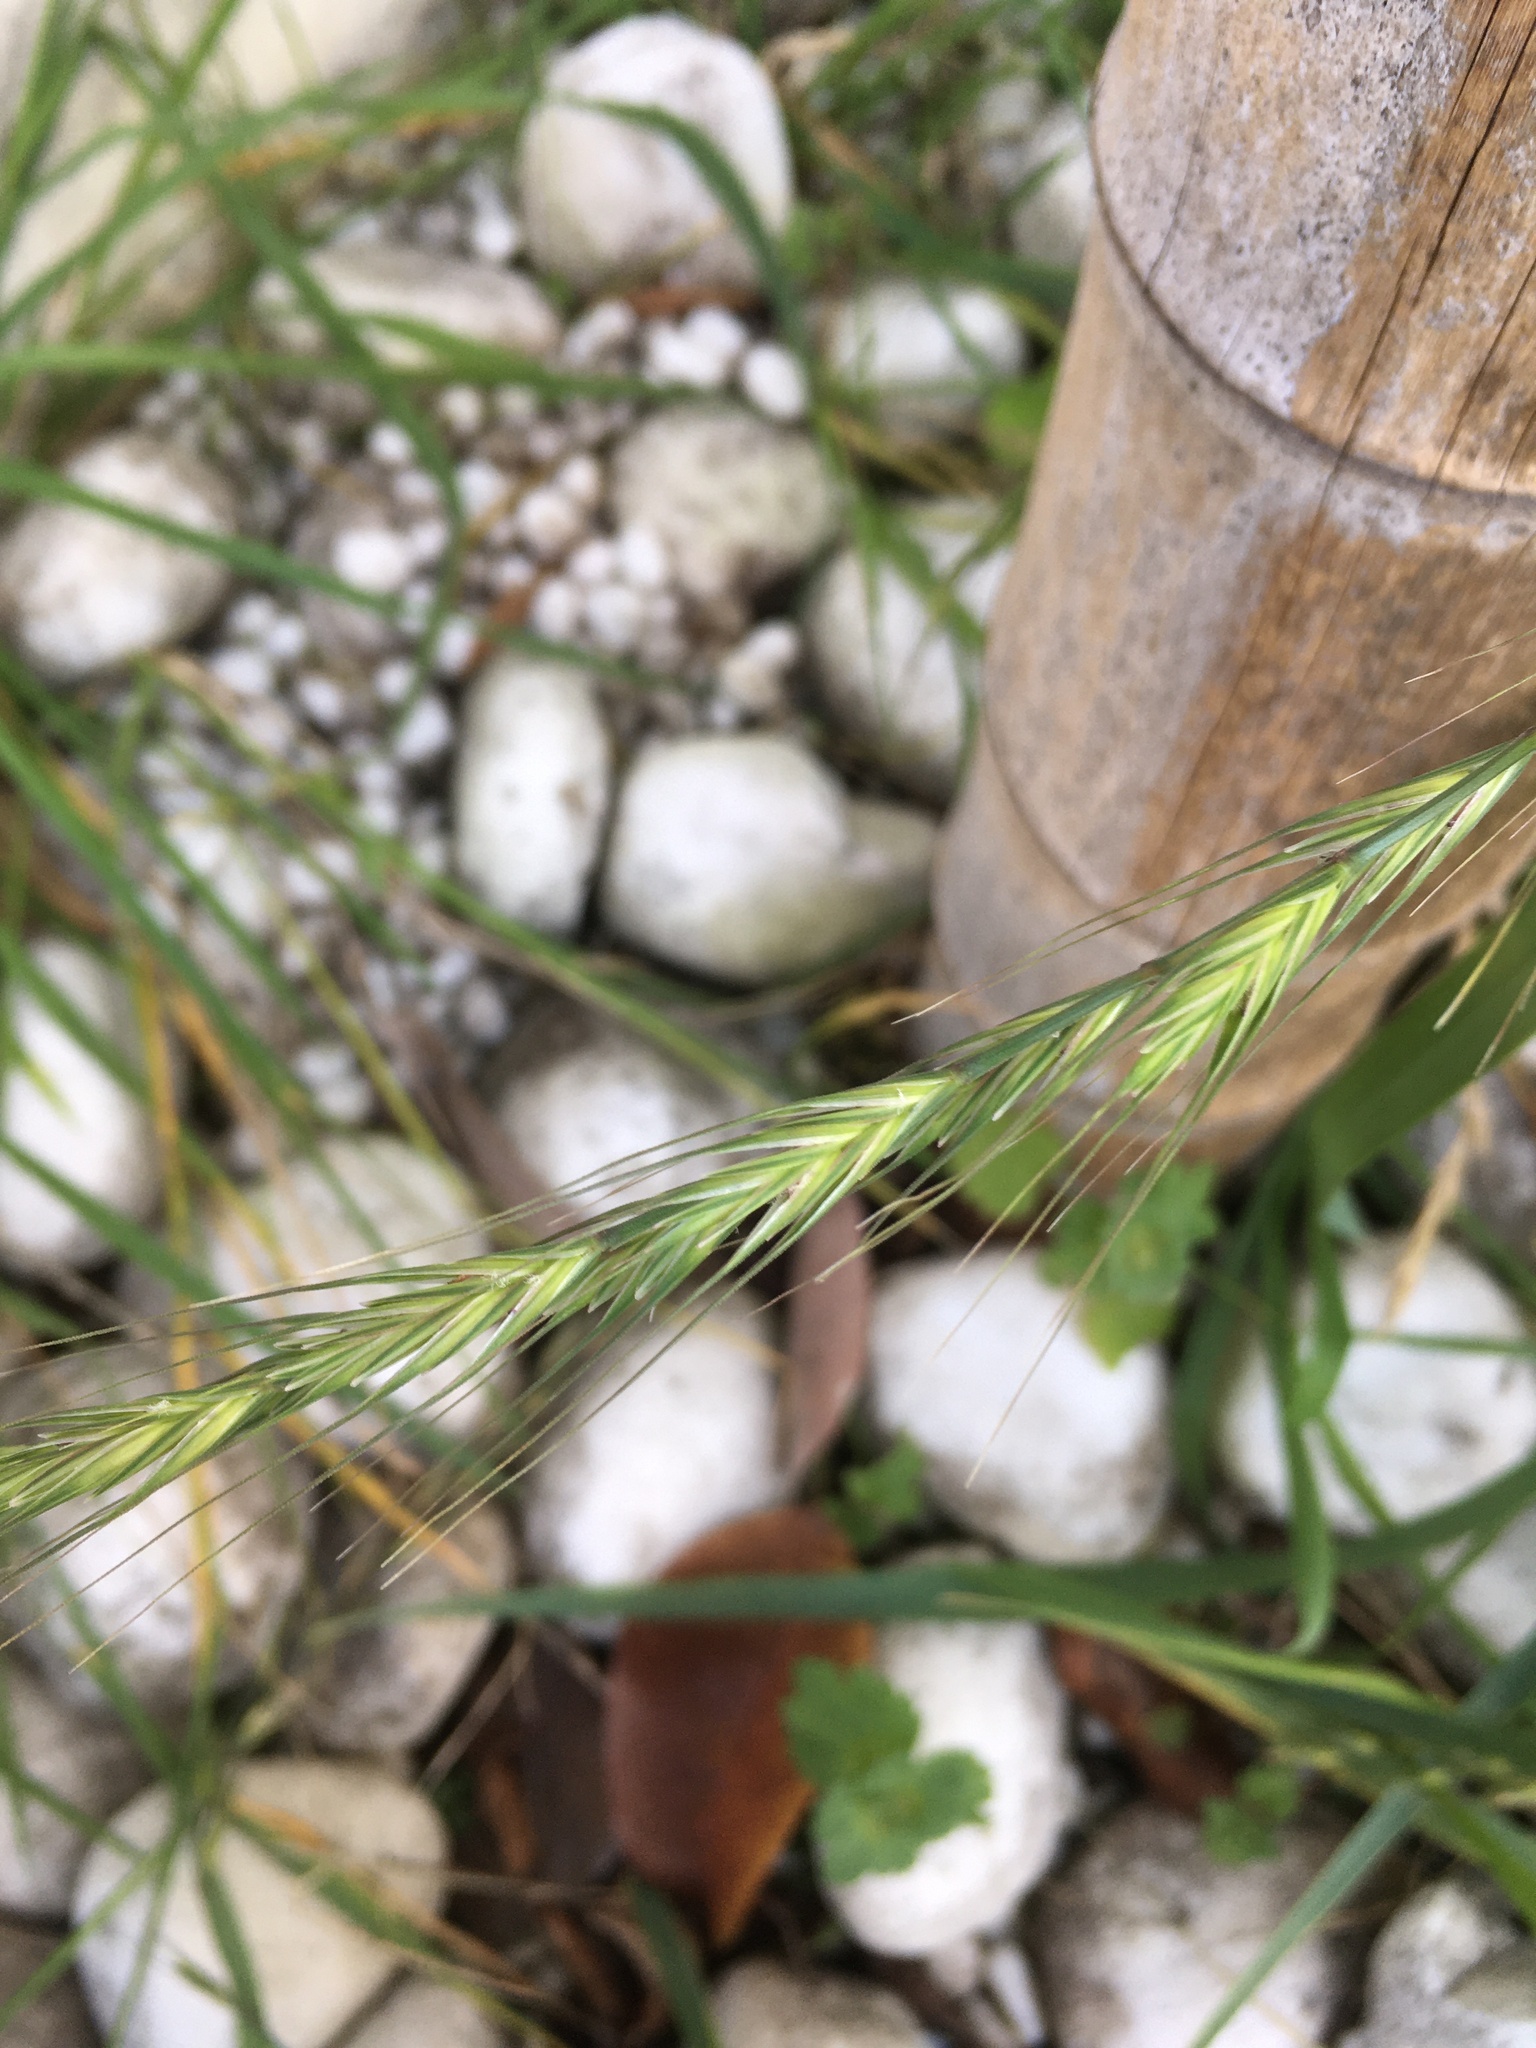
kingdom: Plantae
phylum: Tracheophyta
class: Liliopsida
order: Poales
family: Poaceae
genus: Elymus
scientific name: Elymus tsukushiensis
